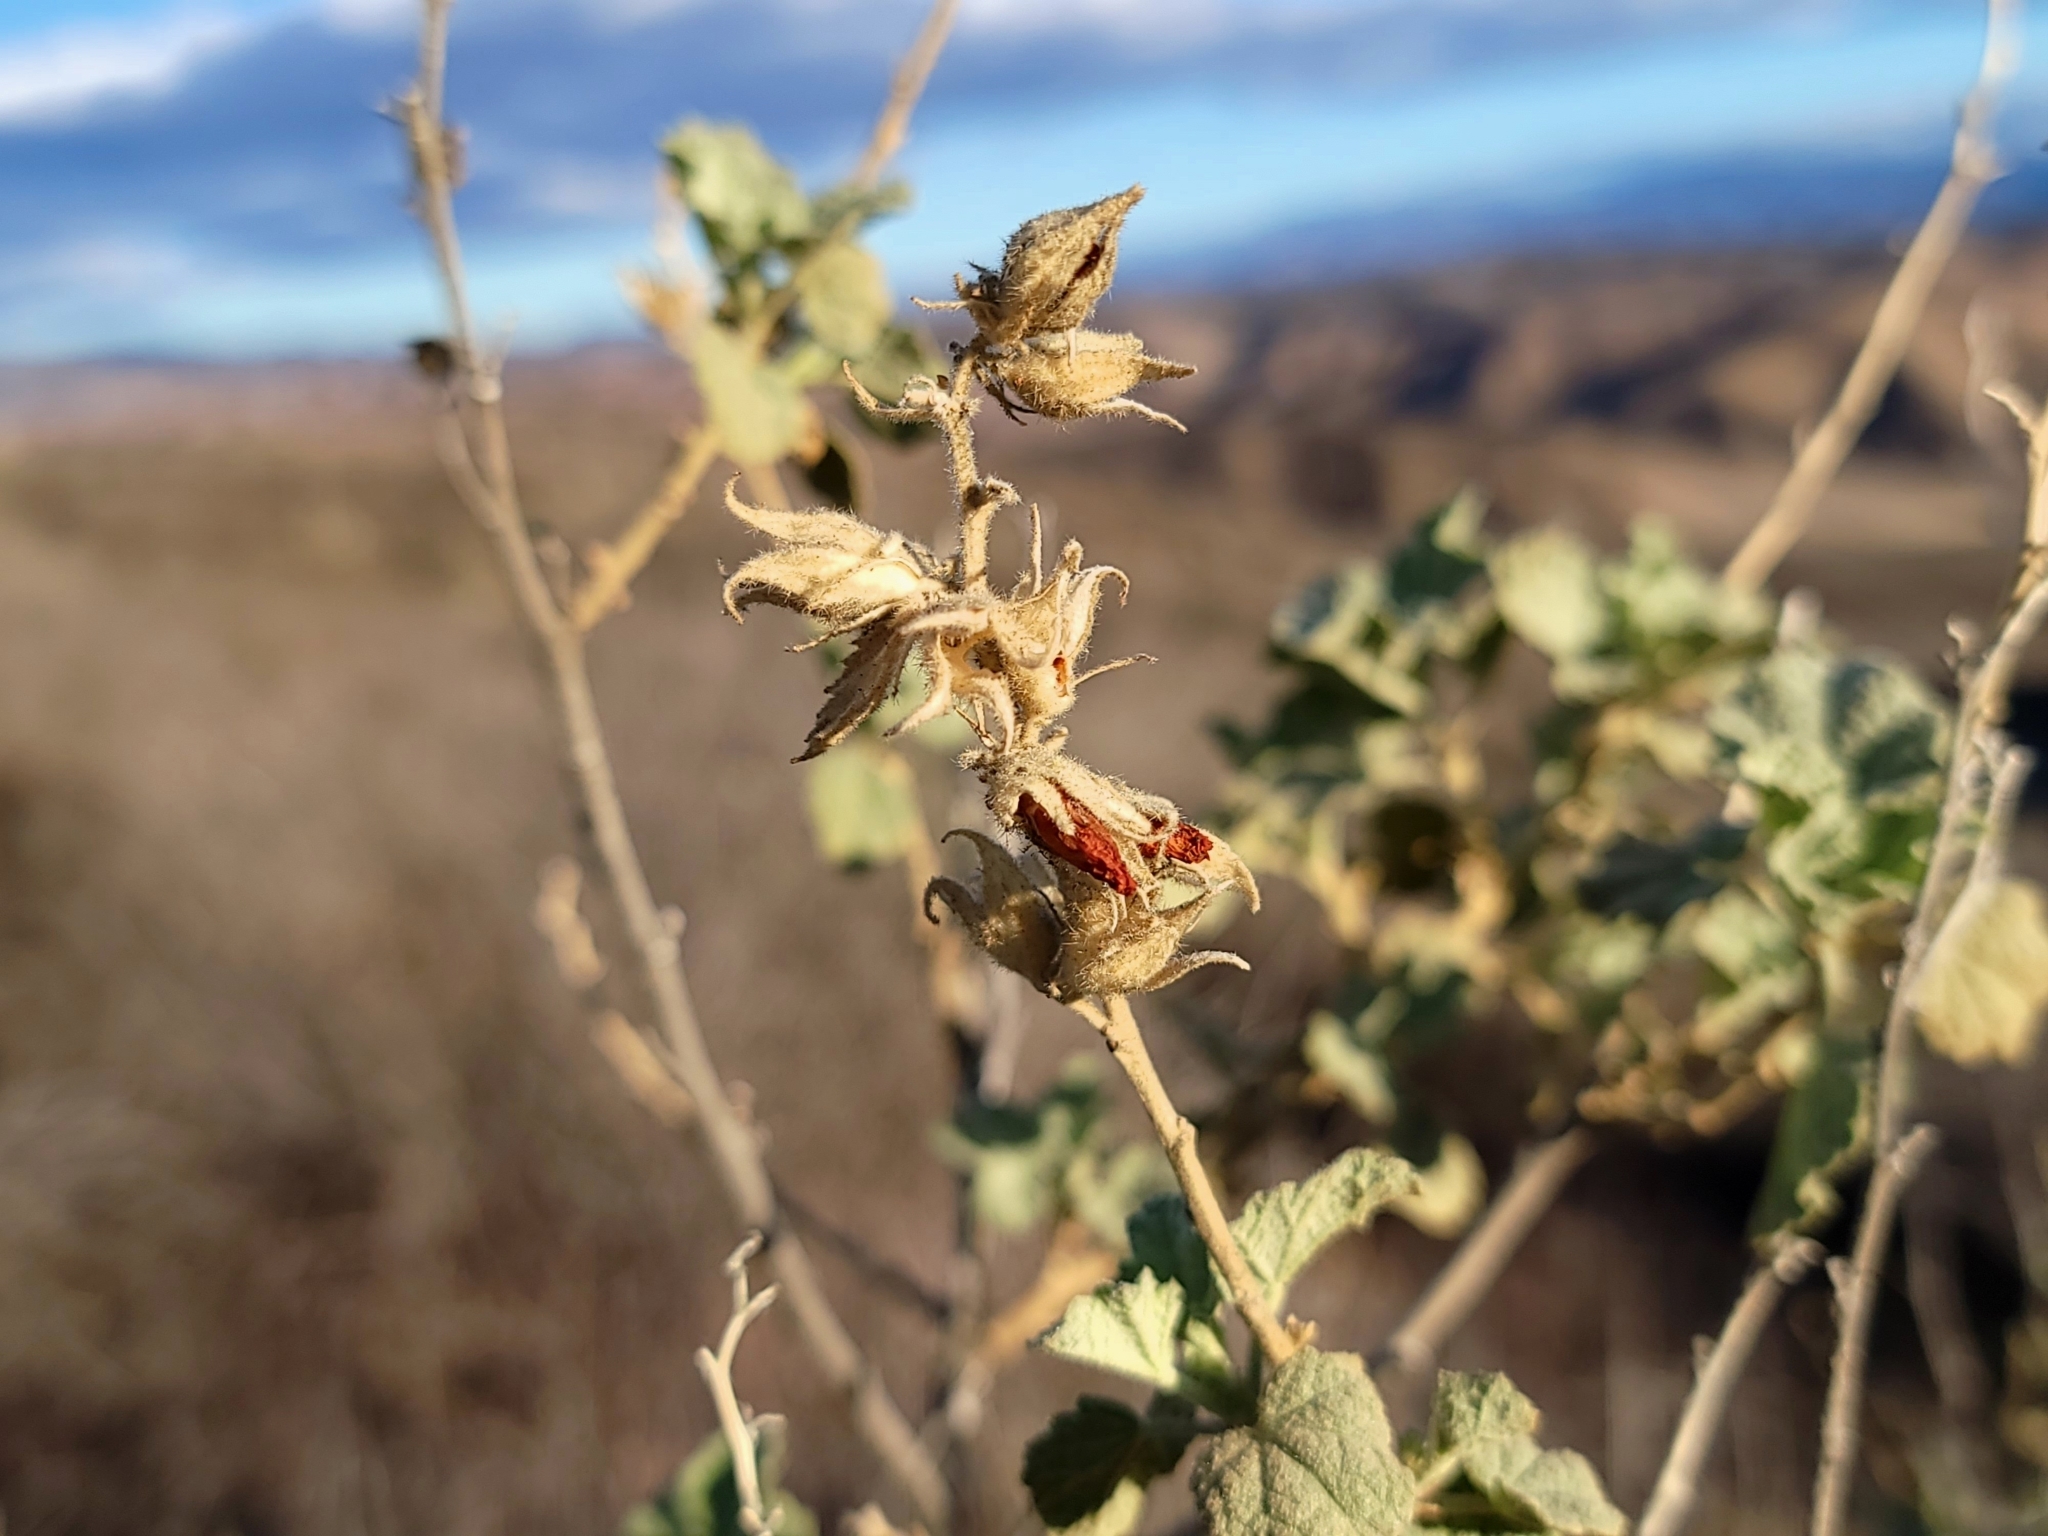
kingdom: Plantae
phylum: Tracheophyta
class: Magnoliopsida
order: Malvales
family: Malvaceae
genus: Malacothamnus
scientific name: Malacothamnus marrubioides
